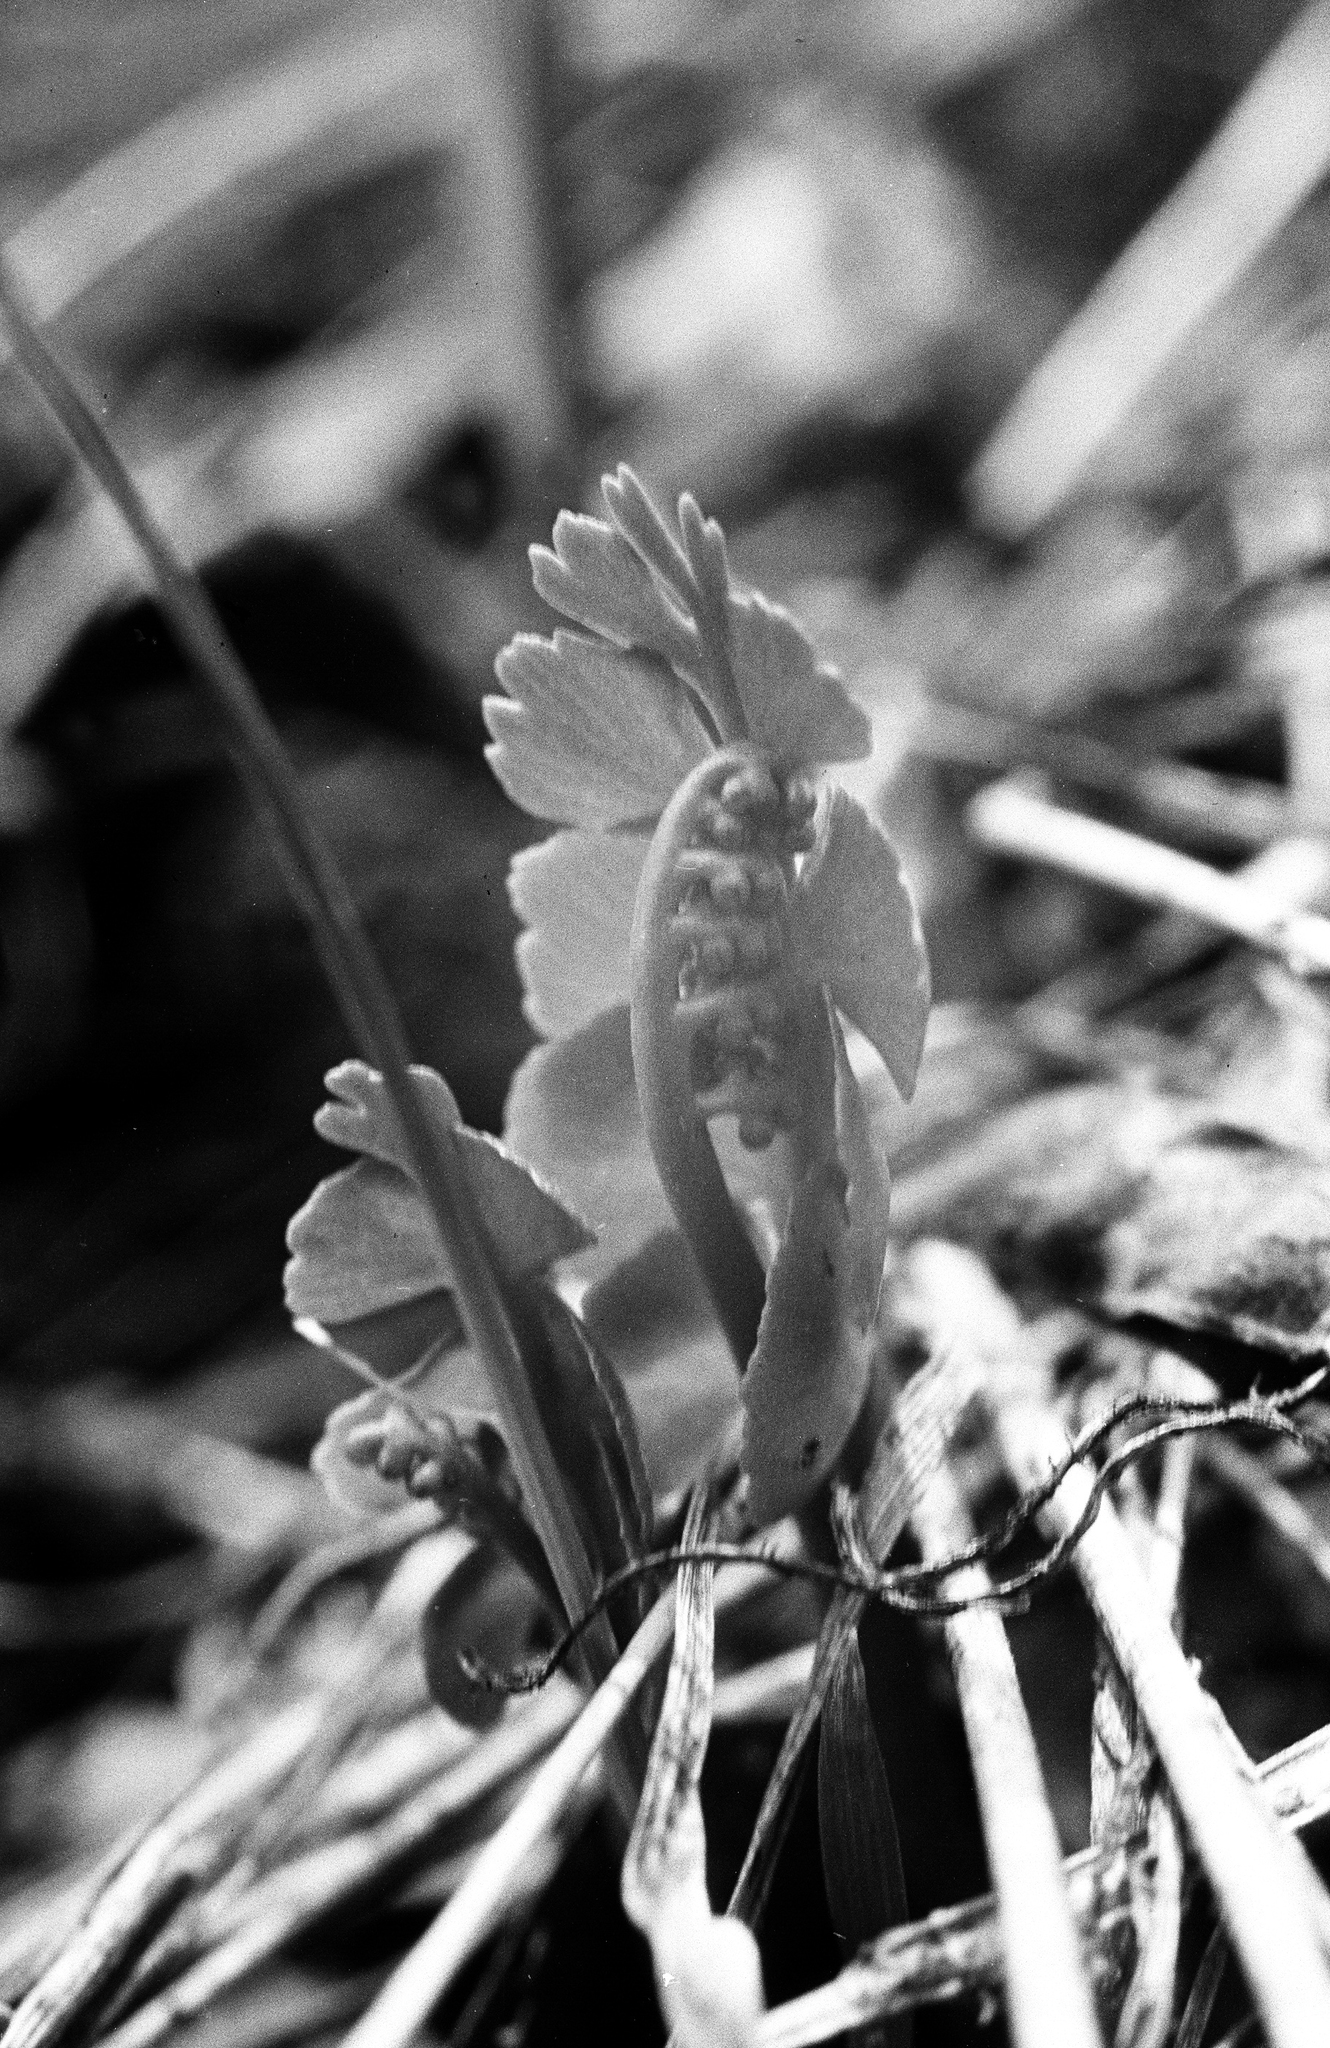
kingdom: Plantae
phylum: Tracheophyta
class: Polypodiopsida
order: Ophioglossales
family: Ophioglossaceae
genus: Botrychium
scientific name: Botrychium lunaria
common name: Moonwort
